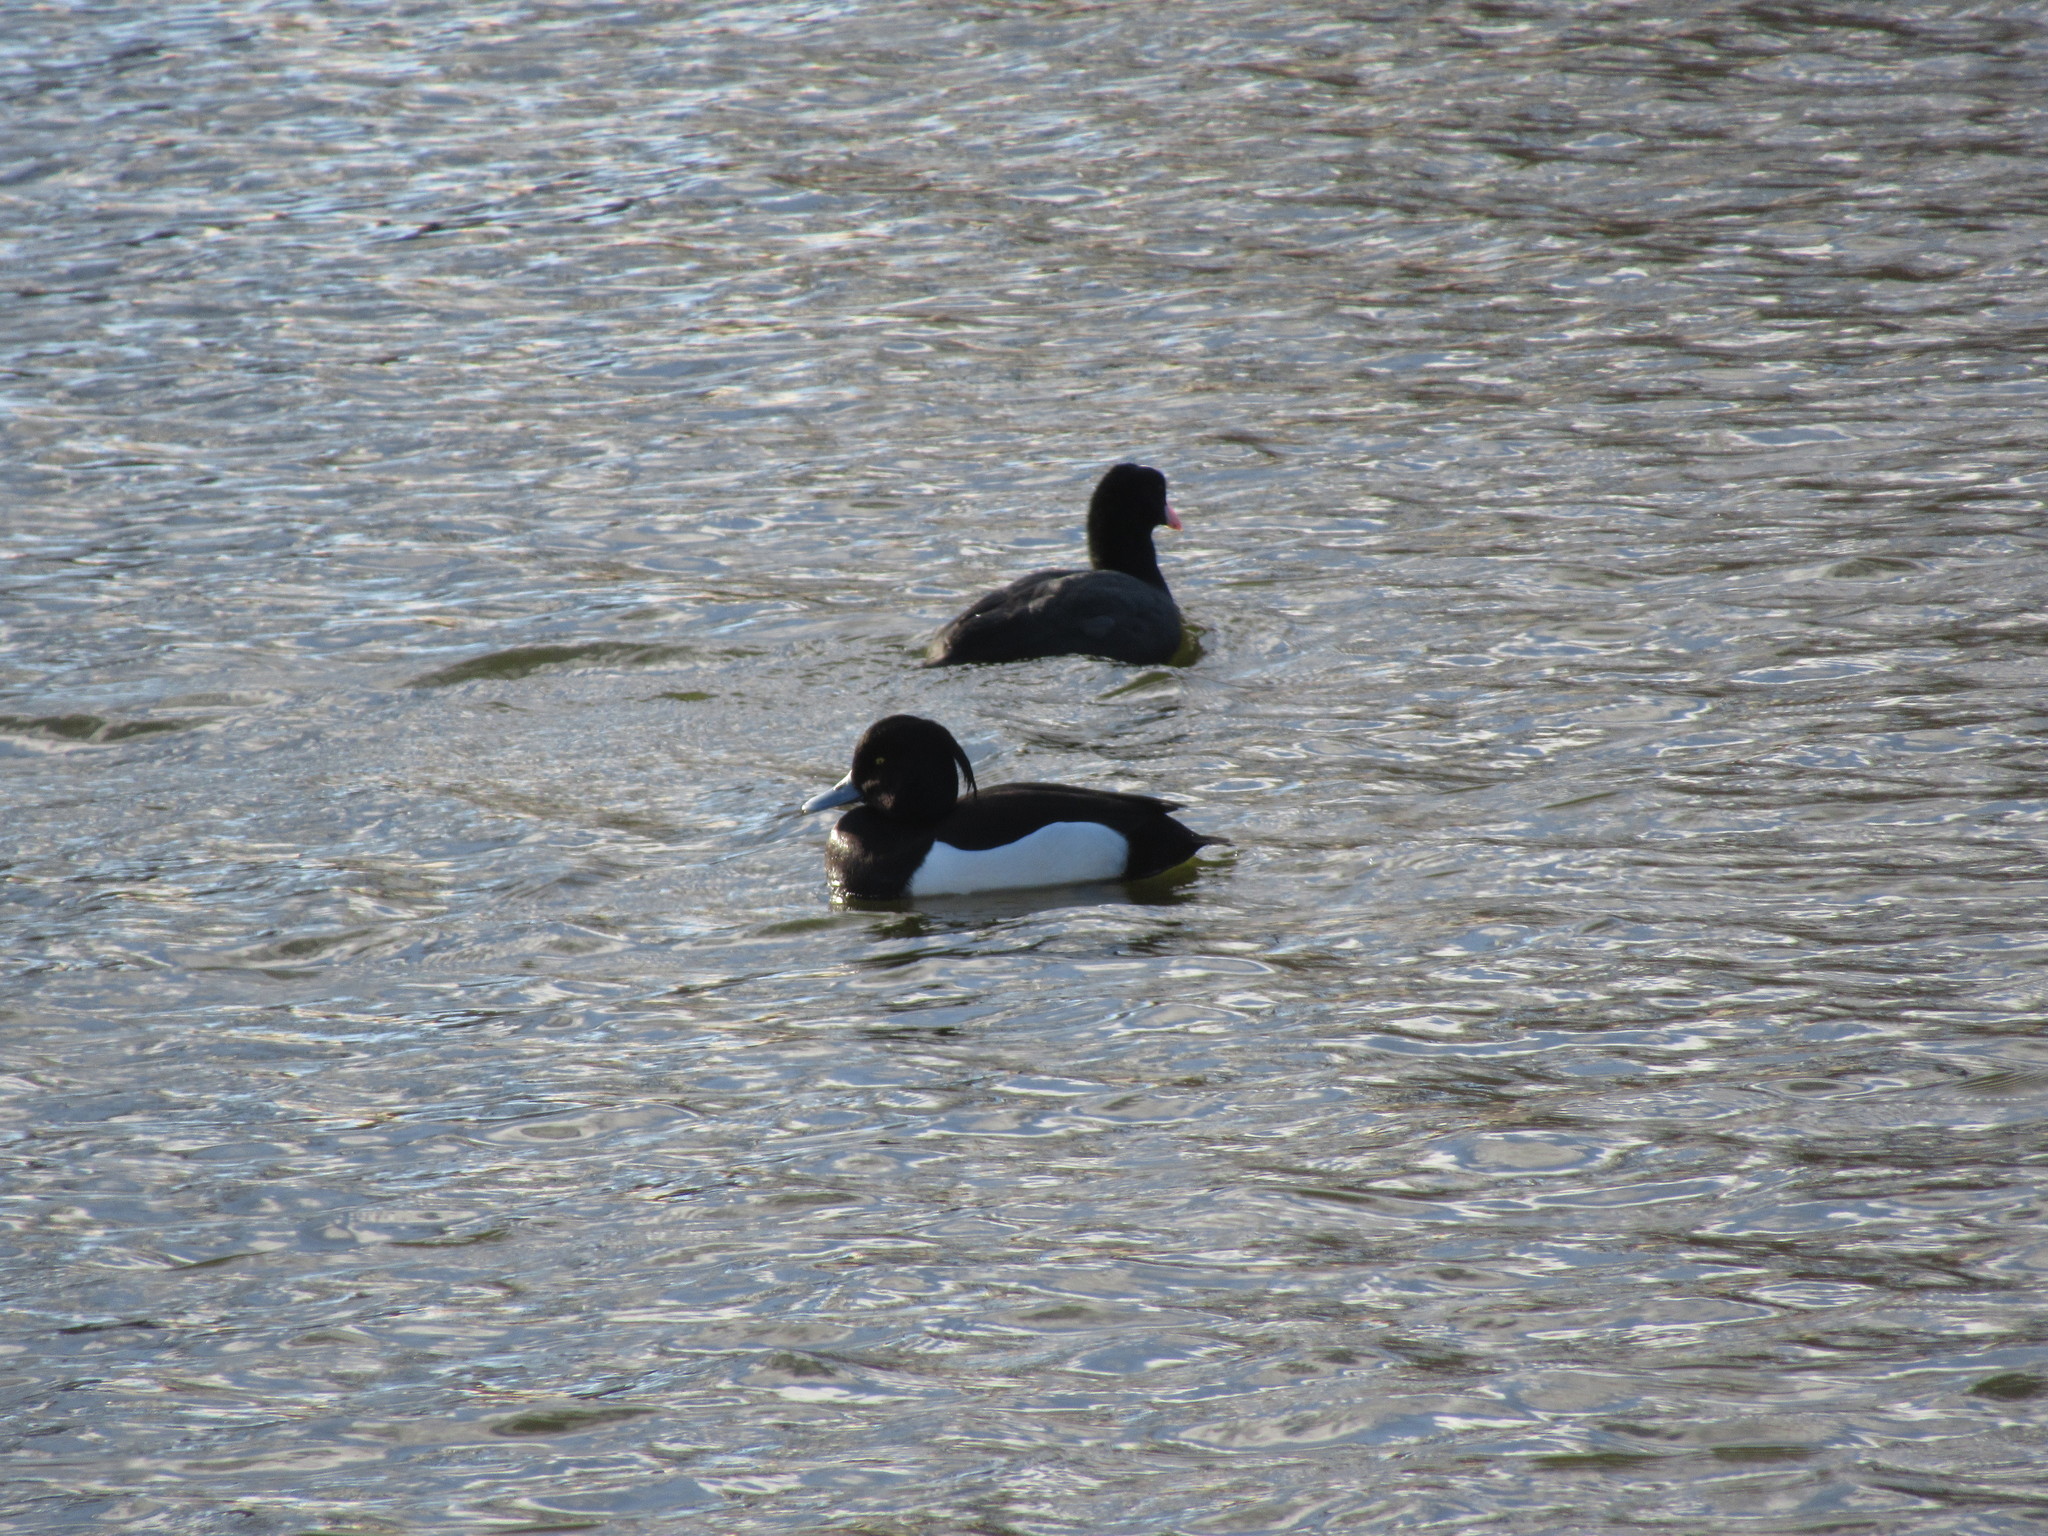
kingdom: Animalia
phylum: Chordata
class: Aves
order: Gruiformes
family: Rallidae
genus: Gallinula
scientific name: Gallinula chloropus
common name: Common moorhen
